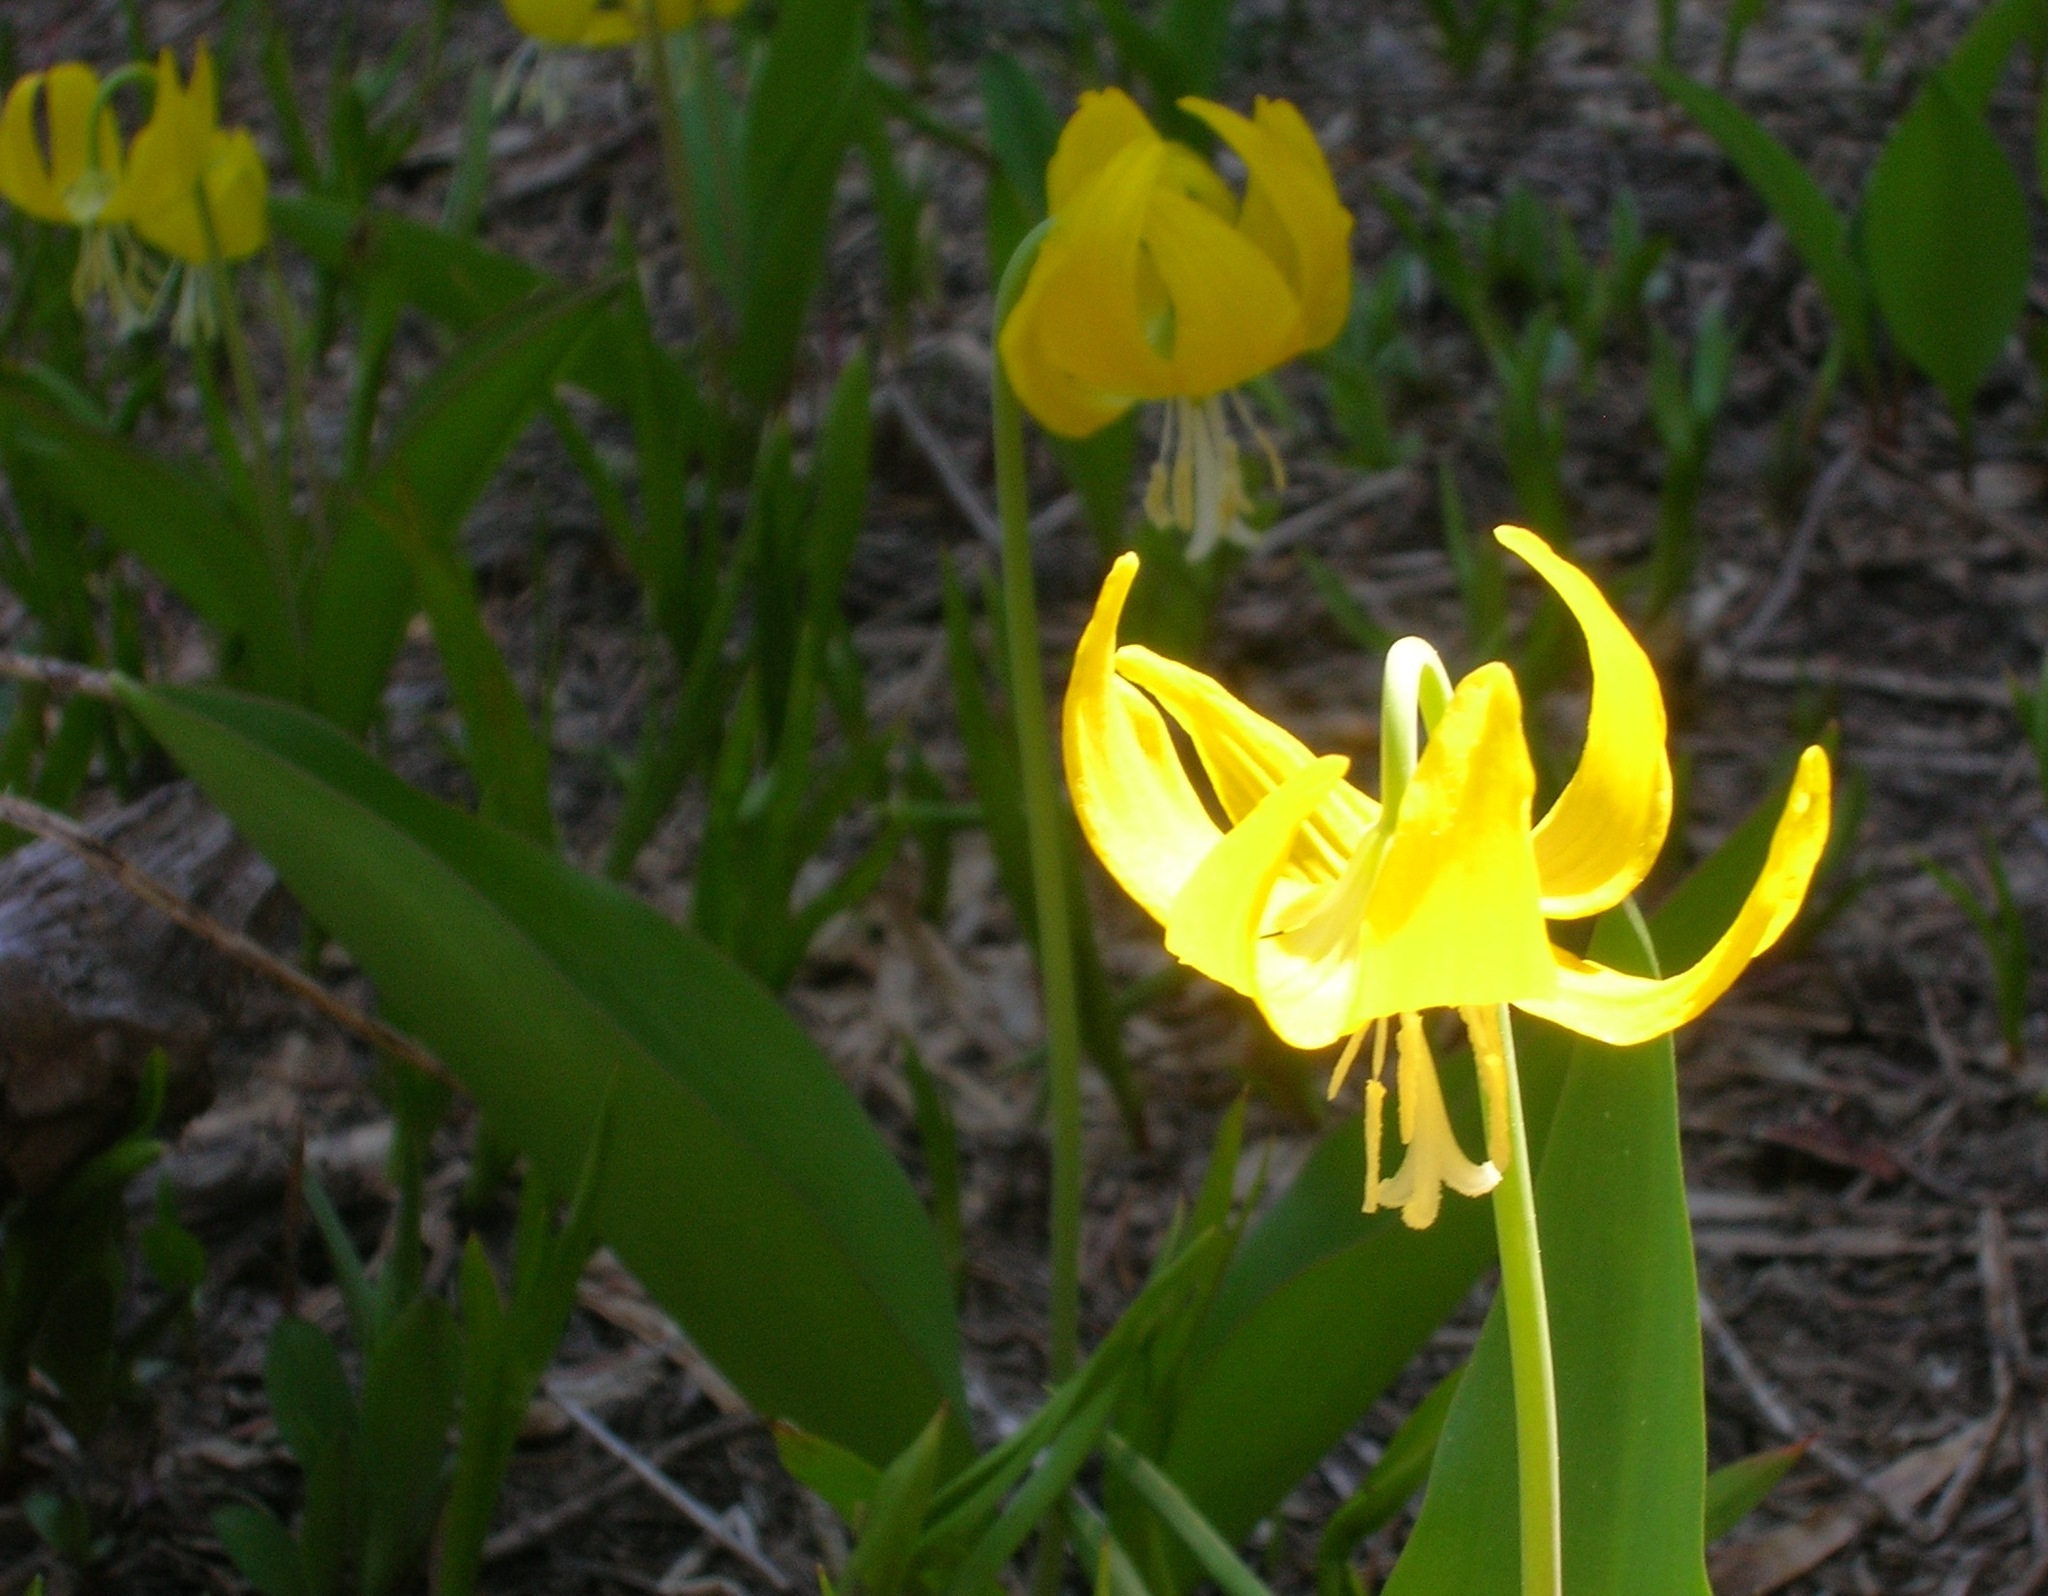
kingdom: Plantae
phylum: Tracheophyta
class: Liliopsida
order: Liliales
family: Liliaceae
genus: Erythronium
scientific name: Erythronium grandiflorum
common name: Avalanche-lily
